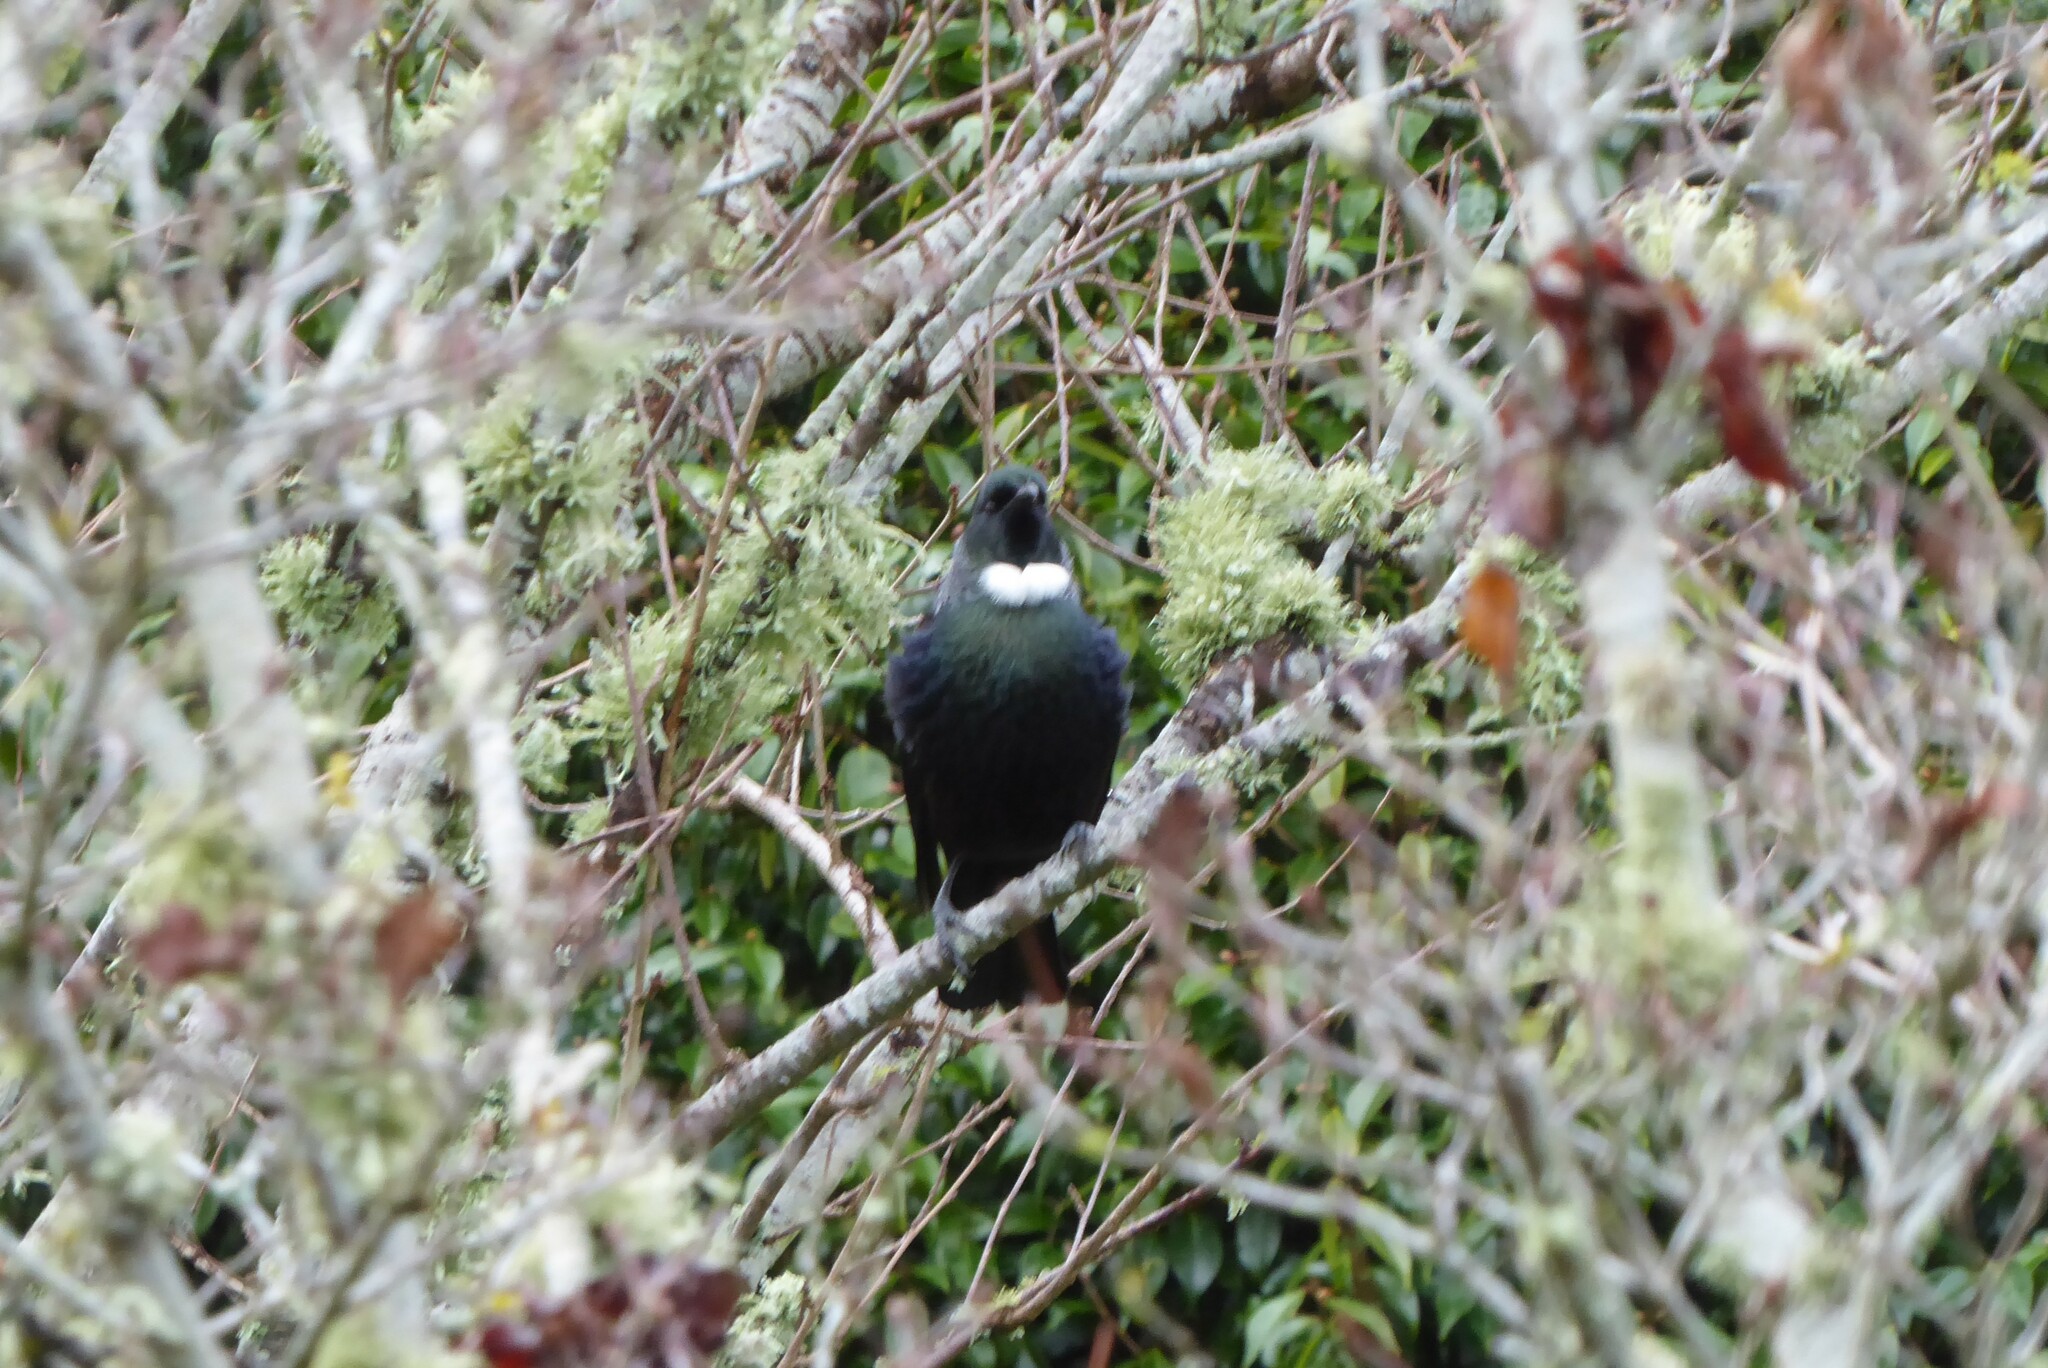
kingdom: Animalia
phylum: Chordata
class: Aves
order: Passeriformes
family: Meliphagidae
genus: Prosthemadera
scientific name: Prosthemadera novaeseelandiae
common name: Tui
